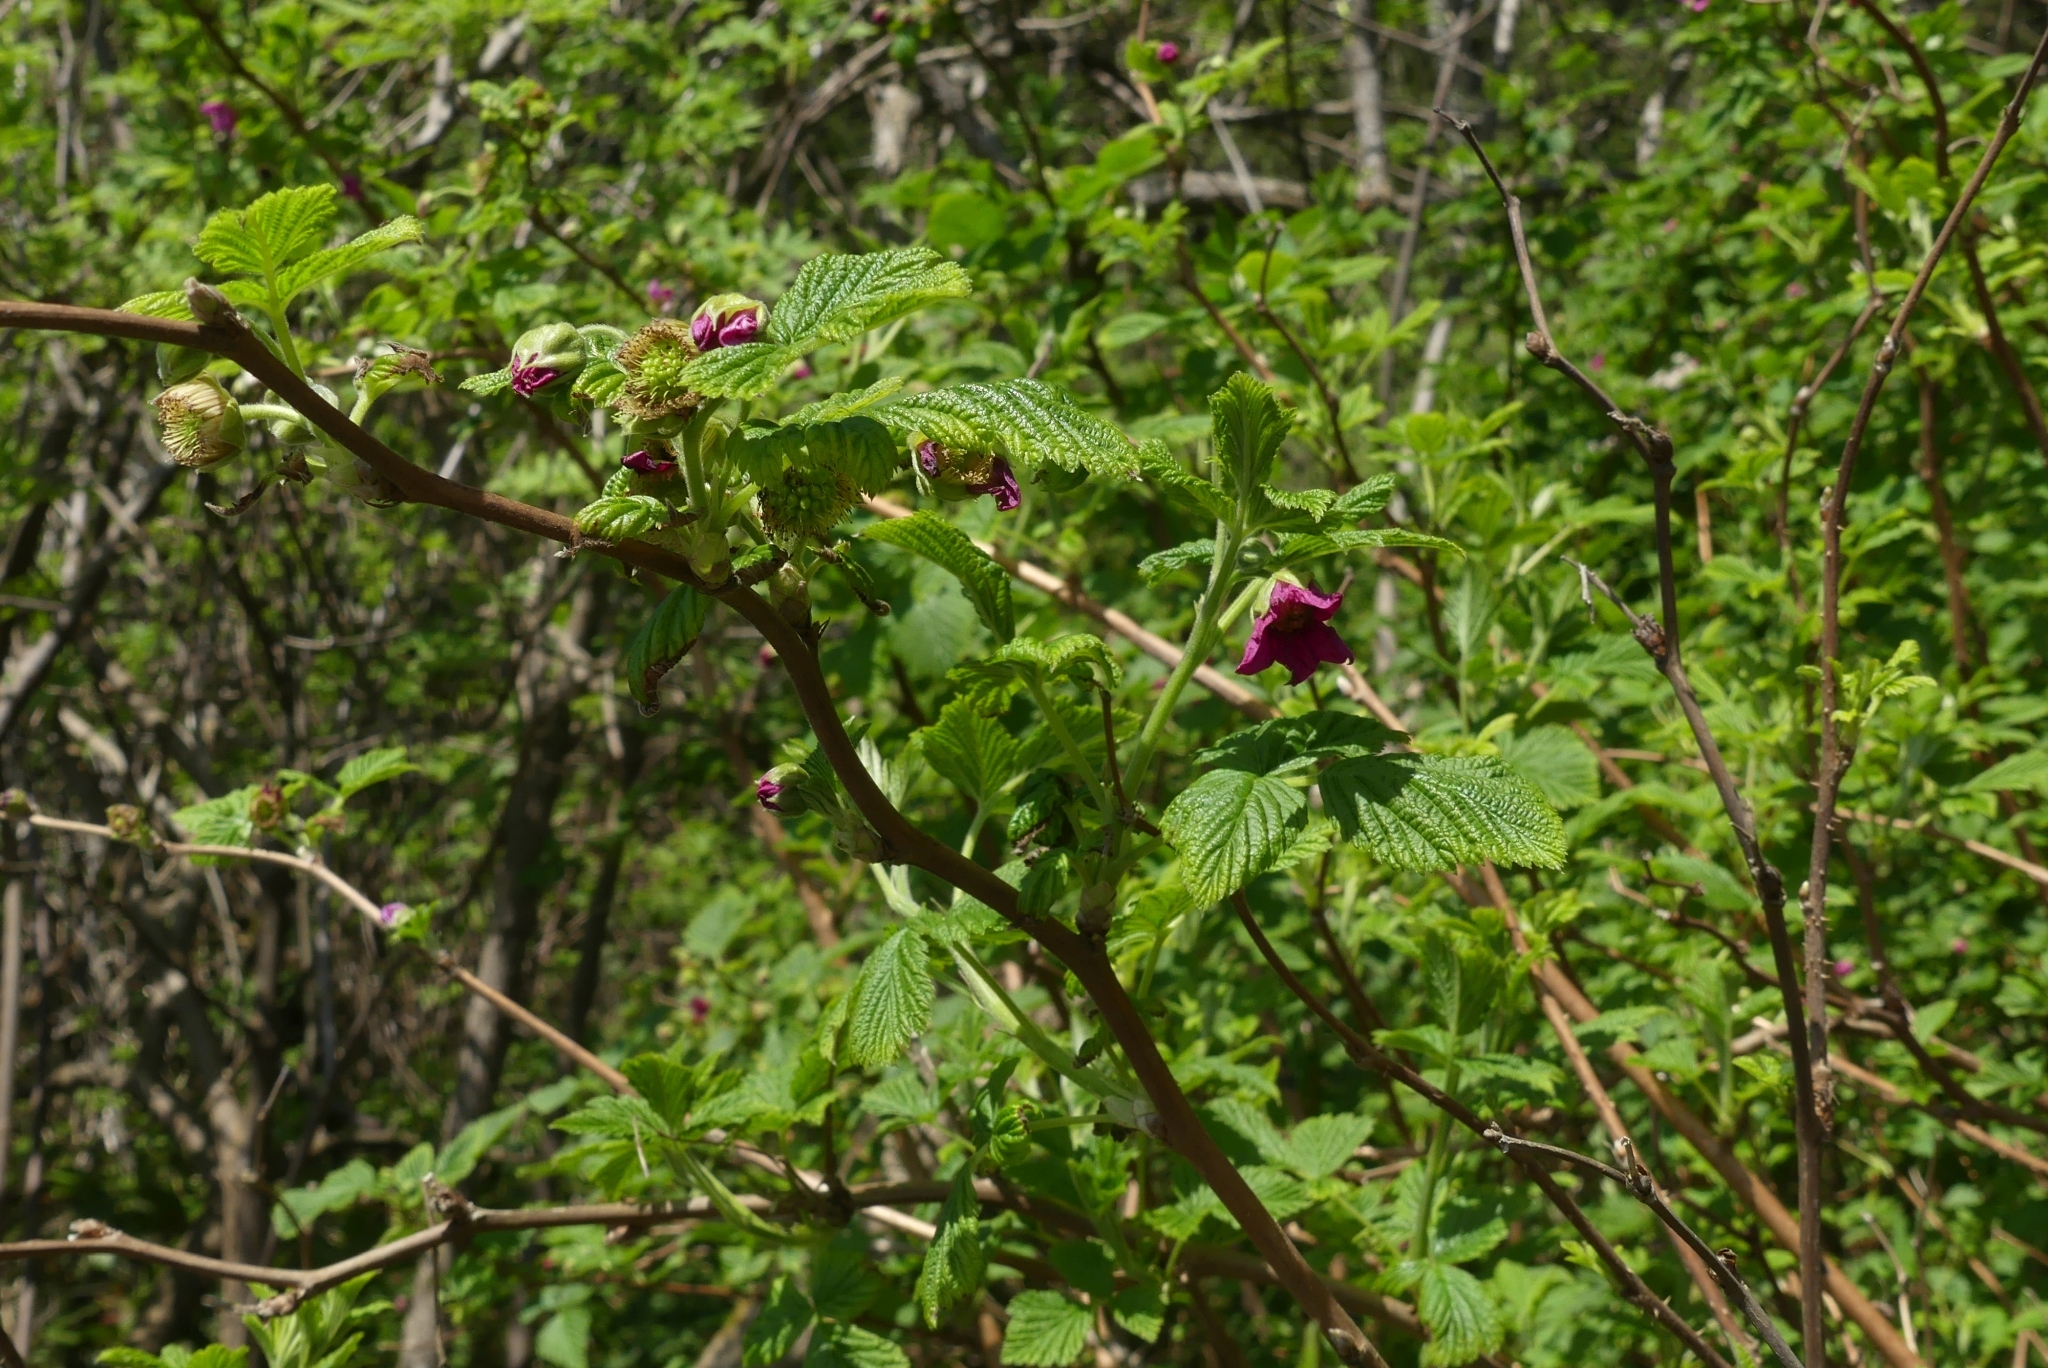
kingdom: Plantae
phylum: Tracheophyta
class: Magnoliopsida
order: Rosales
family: Rosaceae
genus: Rubus
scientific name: Rubus spectabilis
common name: Salmonberry
